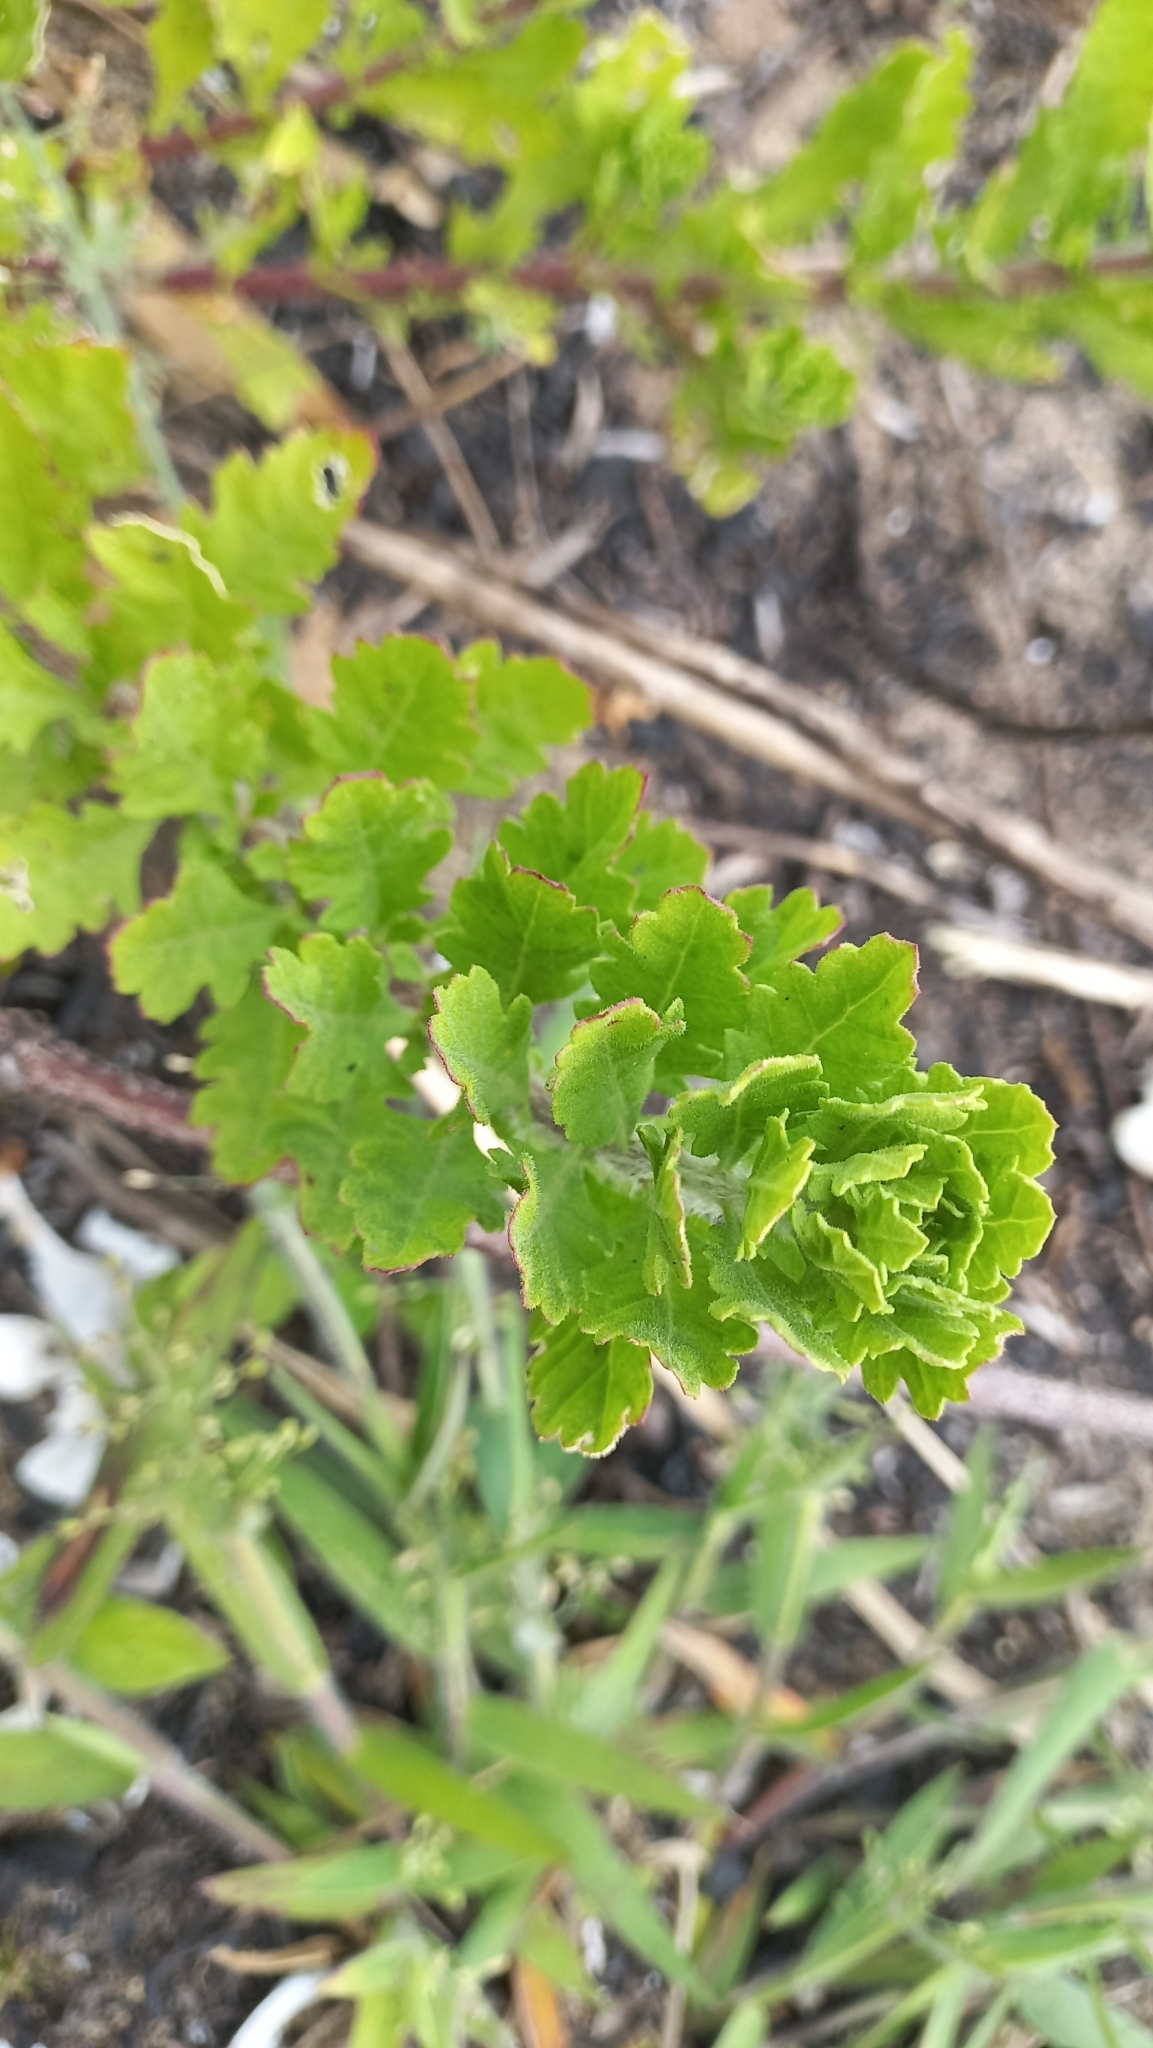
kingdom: Plantae
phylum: Tracheophyta
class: Magnoliopsida
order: Caryophyllales
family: Amaranthaceae
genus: Dysphania
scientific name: Dysphania retusa
